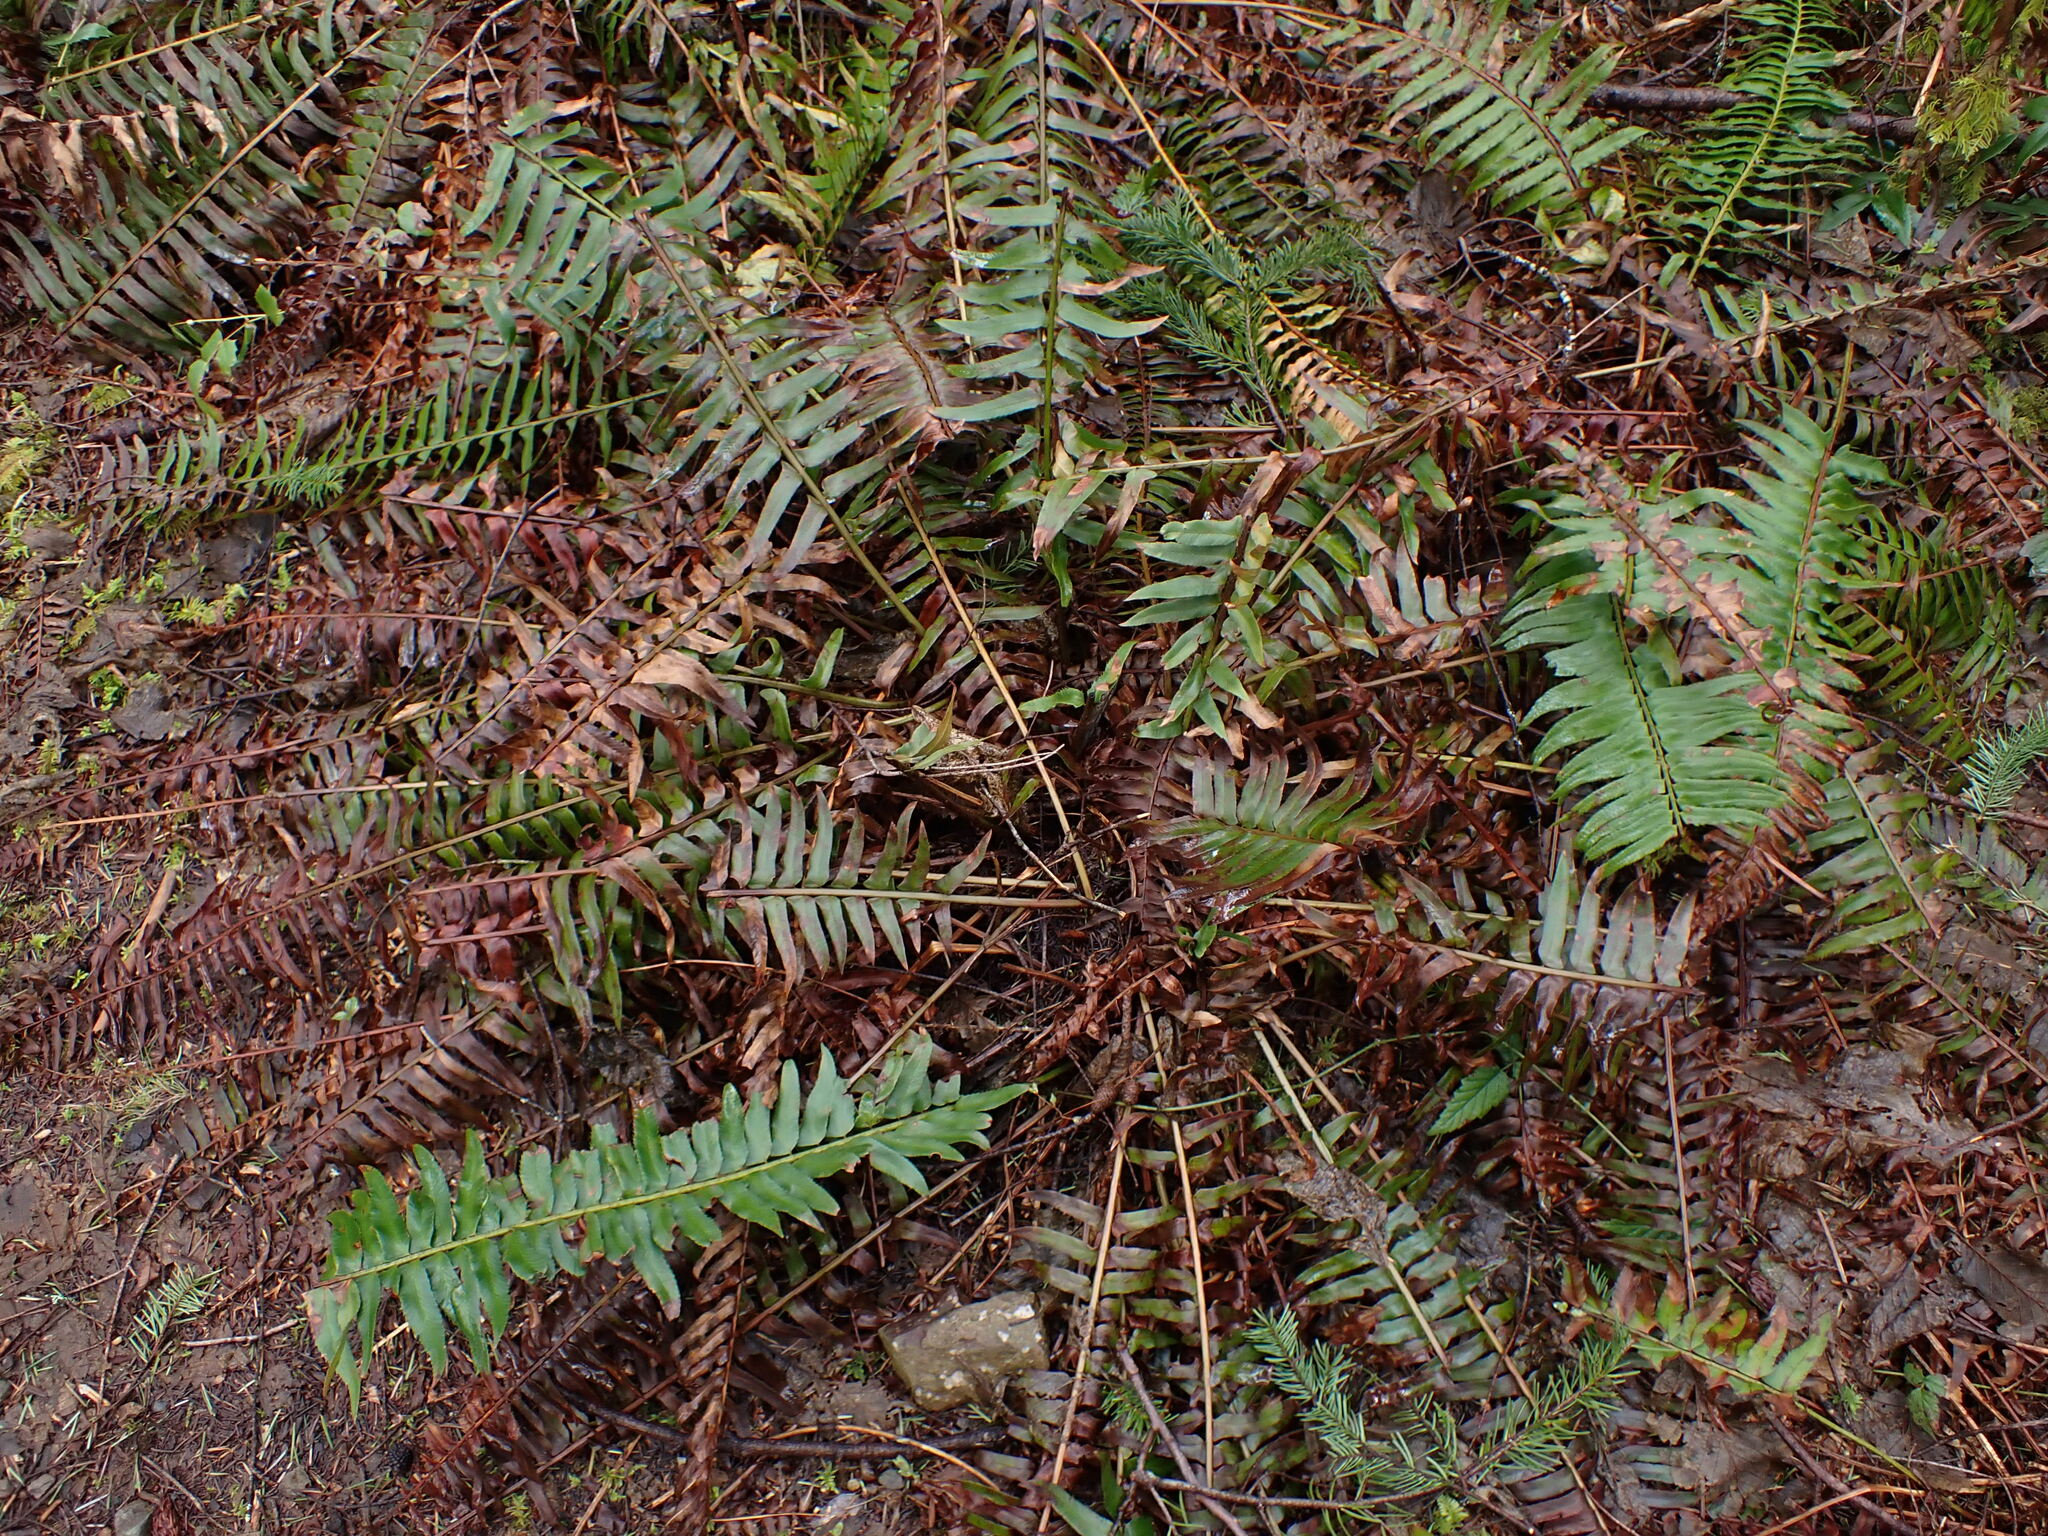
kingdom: Plantae
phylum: Tracheophyta
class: Polypodiopsida
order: Polypodiales
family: Dryopteridaceae
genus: Polystichum
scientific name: Polystichum munitum
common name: Western sword-fern
